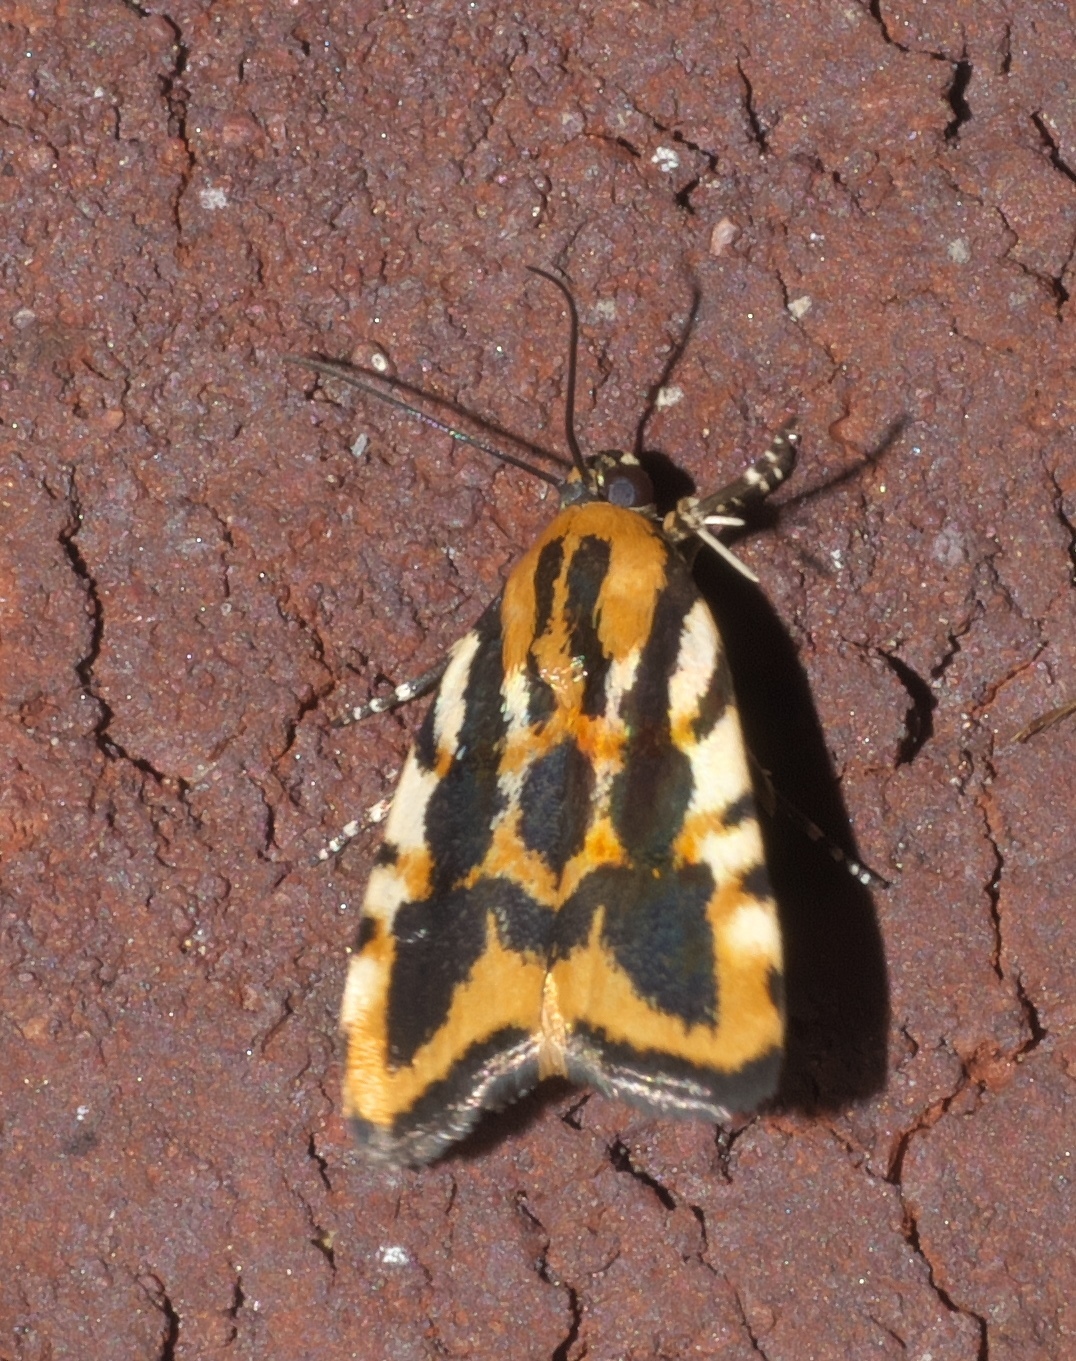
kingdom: Animalia
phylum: Arthropoda
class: Insecta
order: Lepidoptera
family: Noctuidae
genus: Acontia
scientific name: Acontia leo
